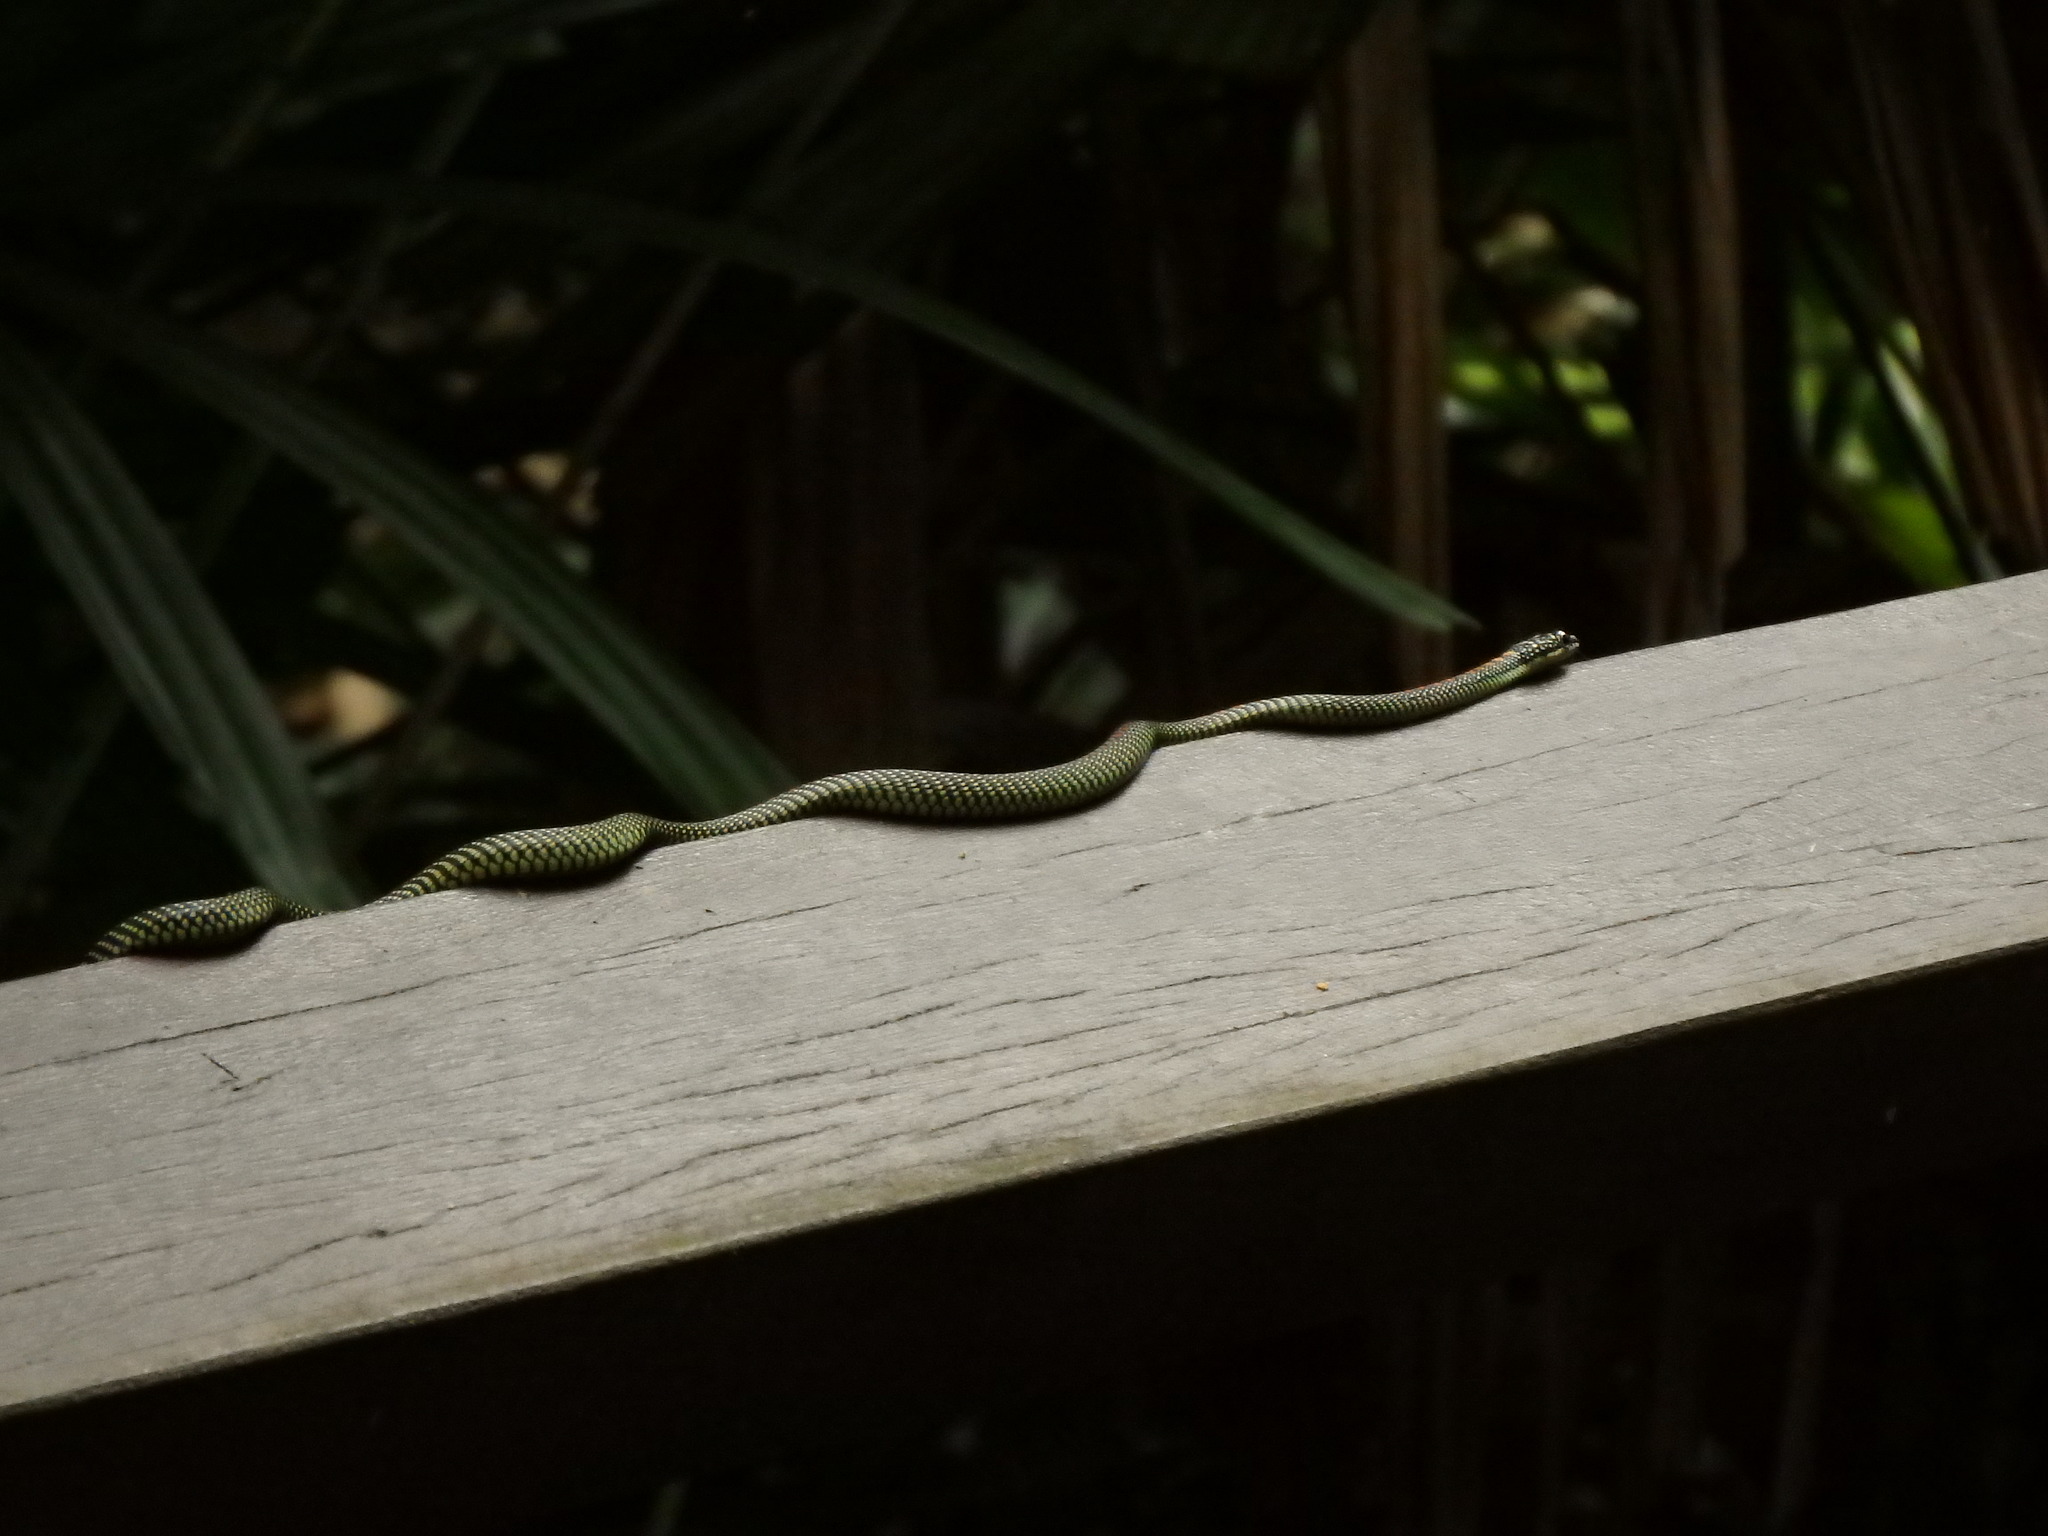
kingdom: Animalia
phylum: Chordata
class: Squamata
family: Colubridae
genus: Chrysopelea
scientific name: Chrysopelea paradisi
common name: Paradise tree snake
